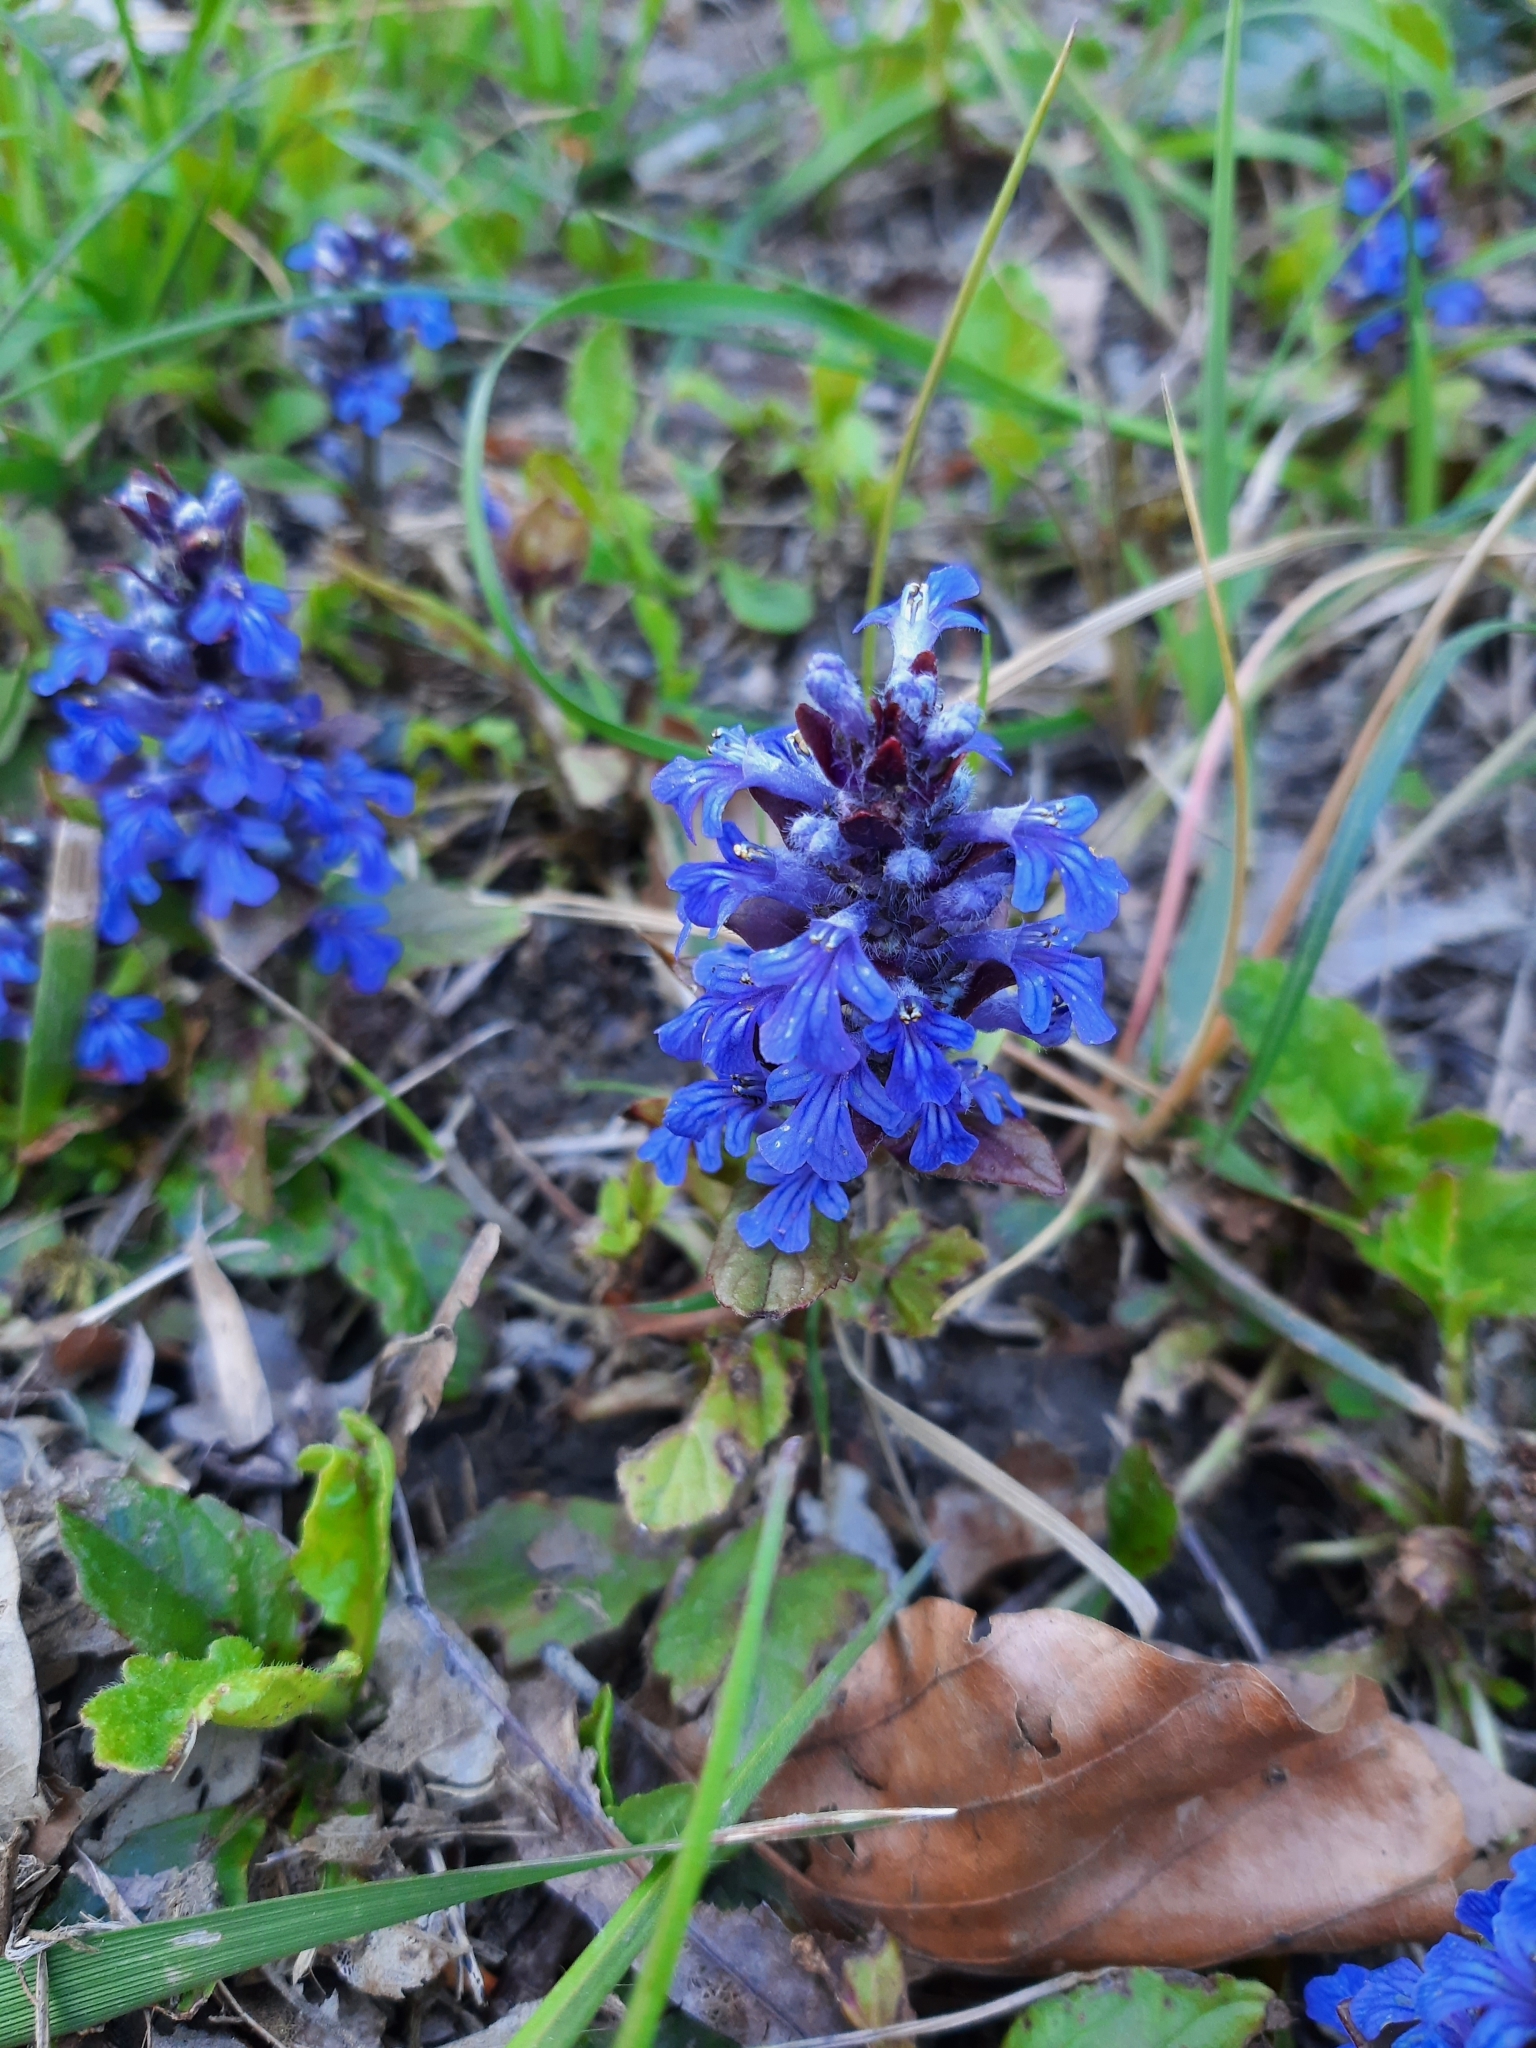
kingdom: Plantae
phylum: Tracheophyta
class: Magnoliopsida
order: Lamiales
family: Lamiaceae
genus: Ajuga
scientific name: Ajuga reptans
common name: Bugle
